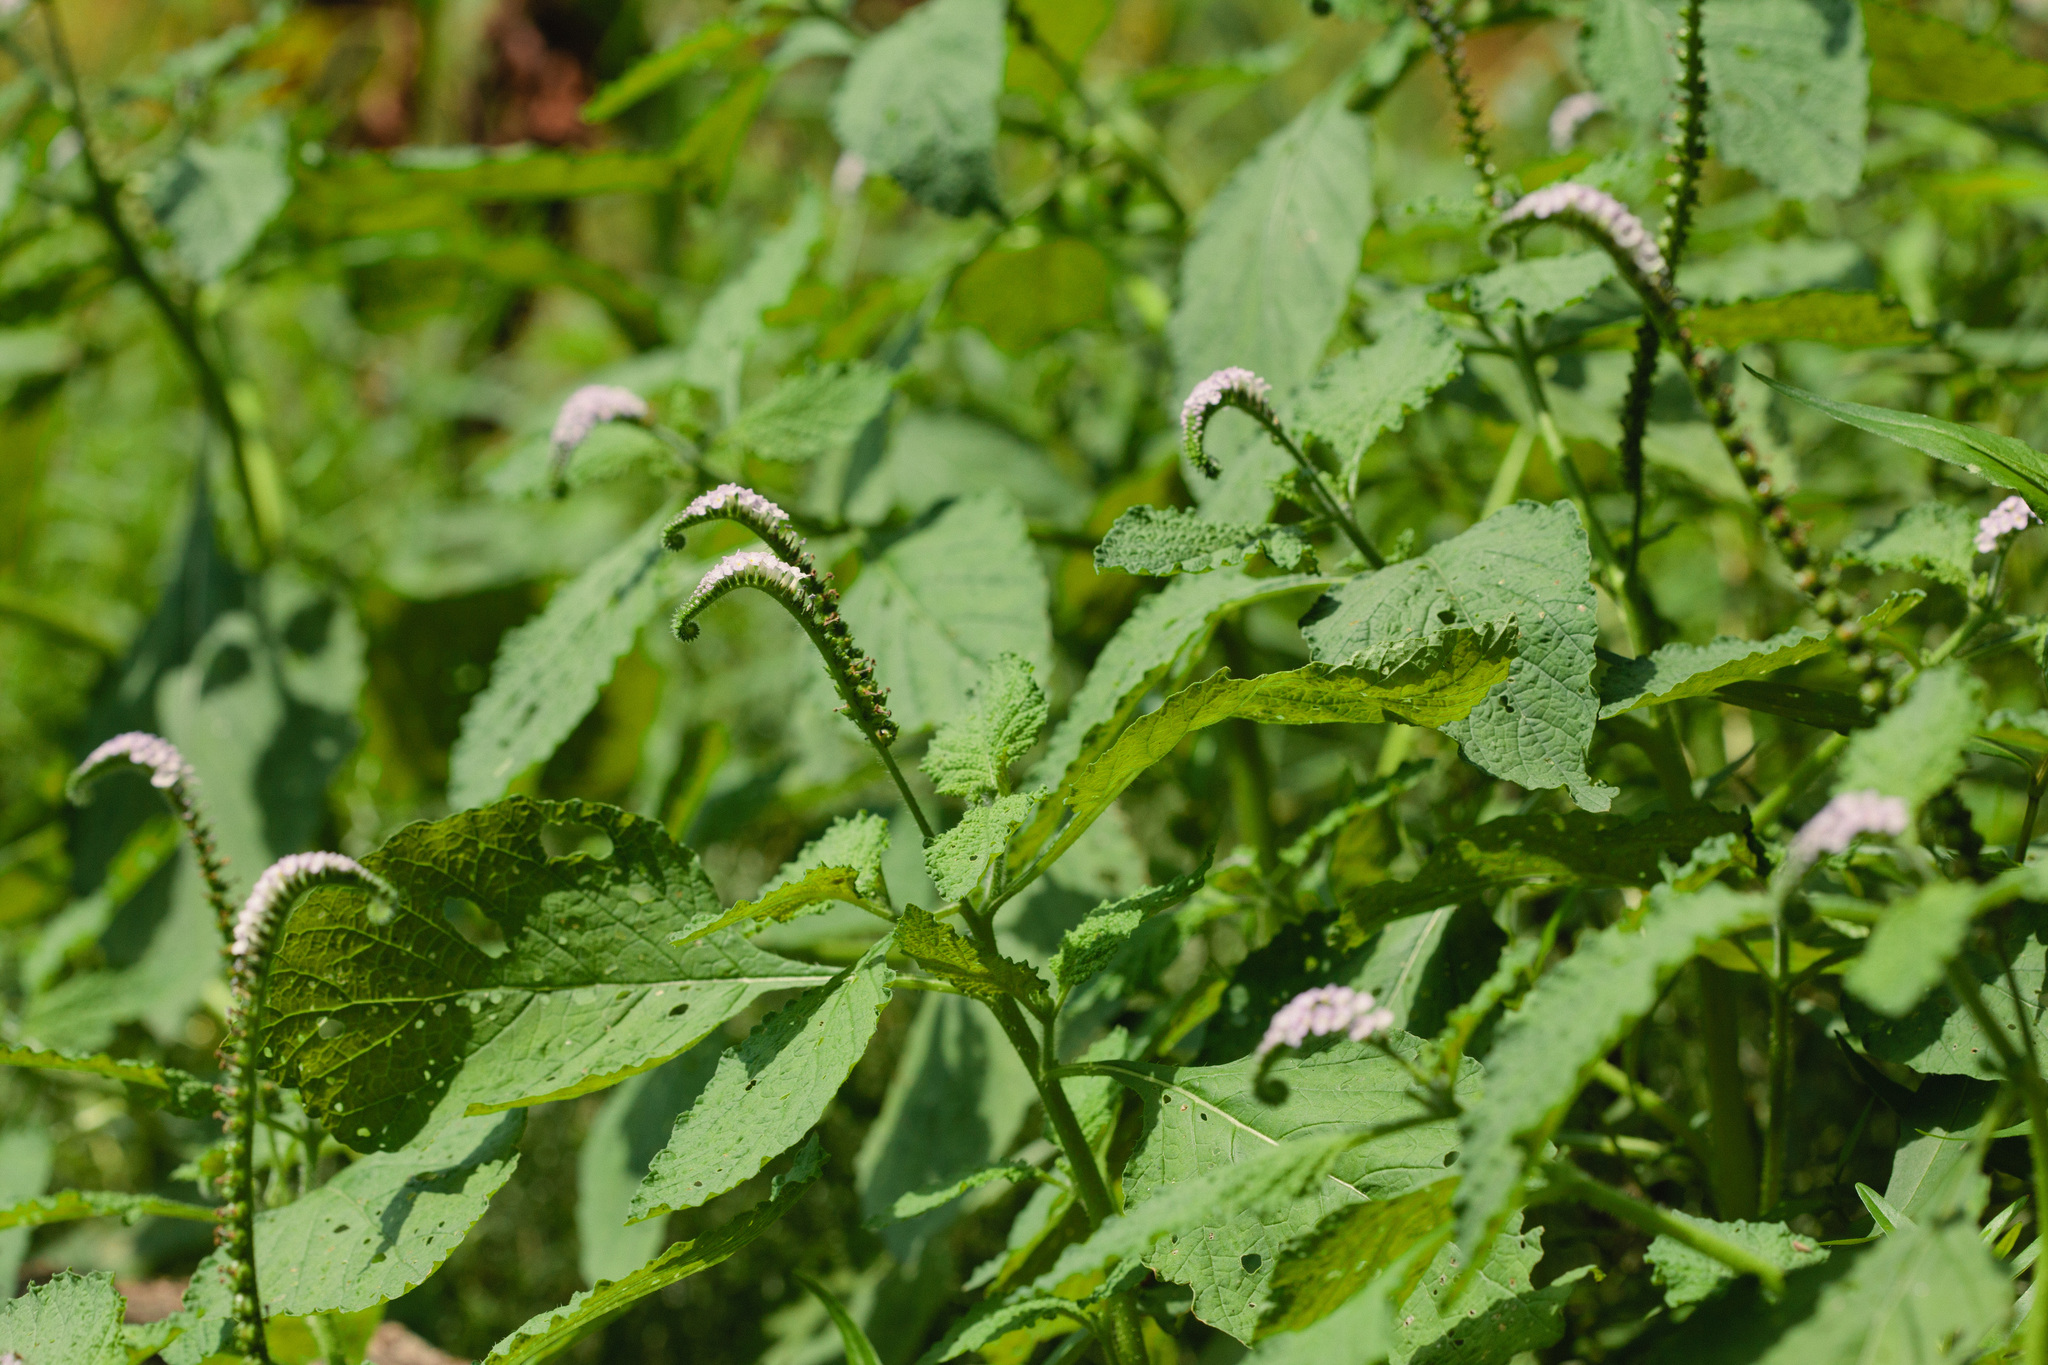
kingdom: Plantae
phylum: Tracheophyta
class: Magnoliopsida
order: Boraginales
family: Heliotropiaceae
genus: Heliotropium
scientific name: Heliotropium indicum
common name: Indian heliotrope
